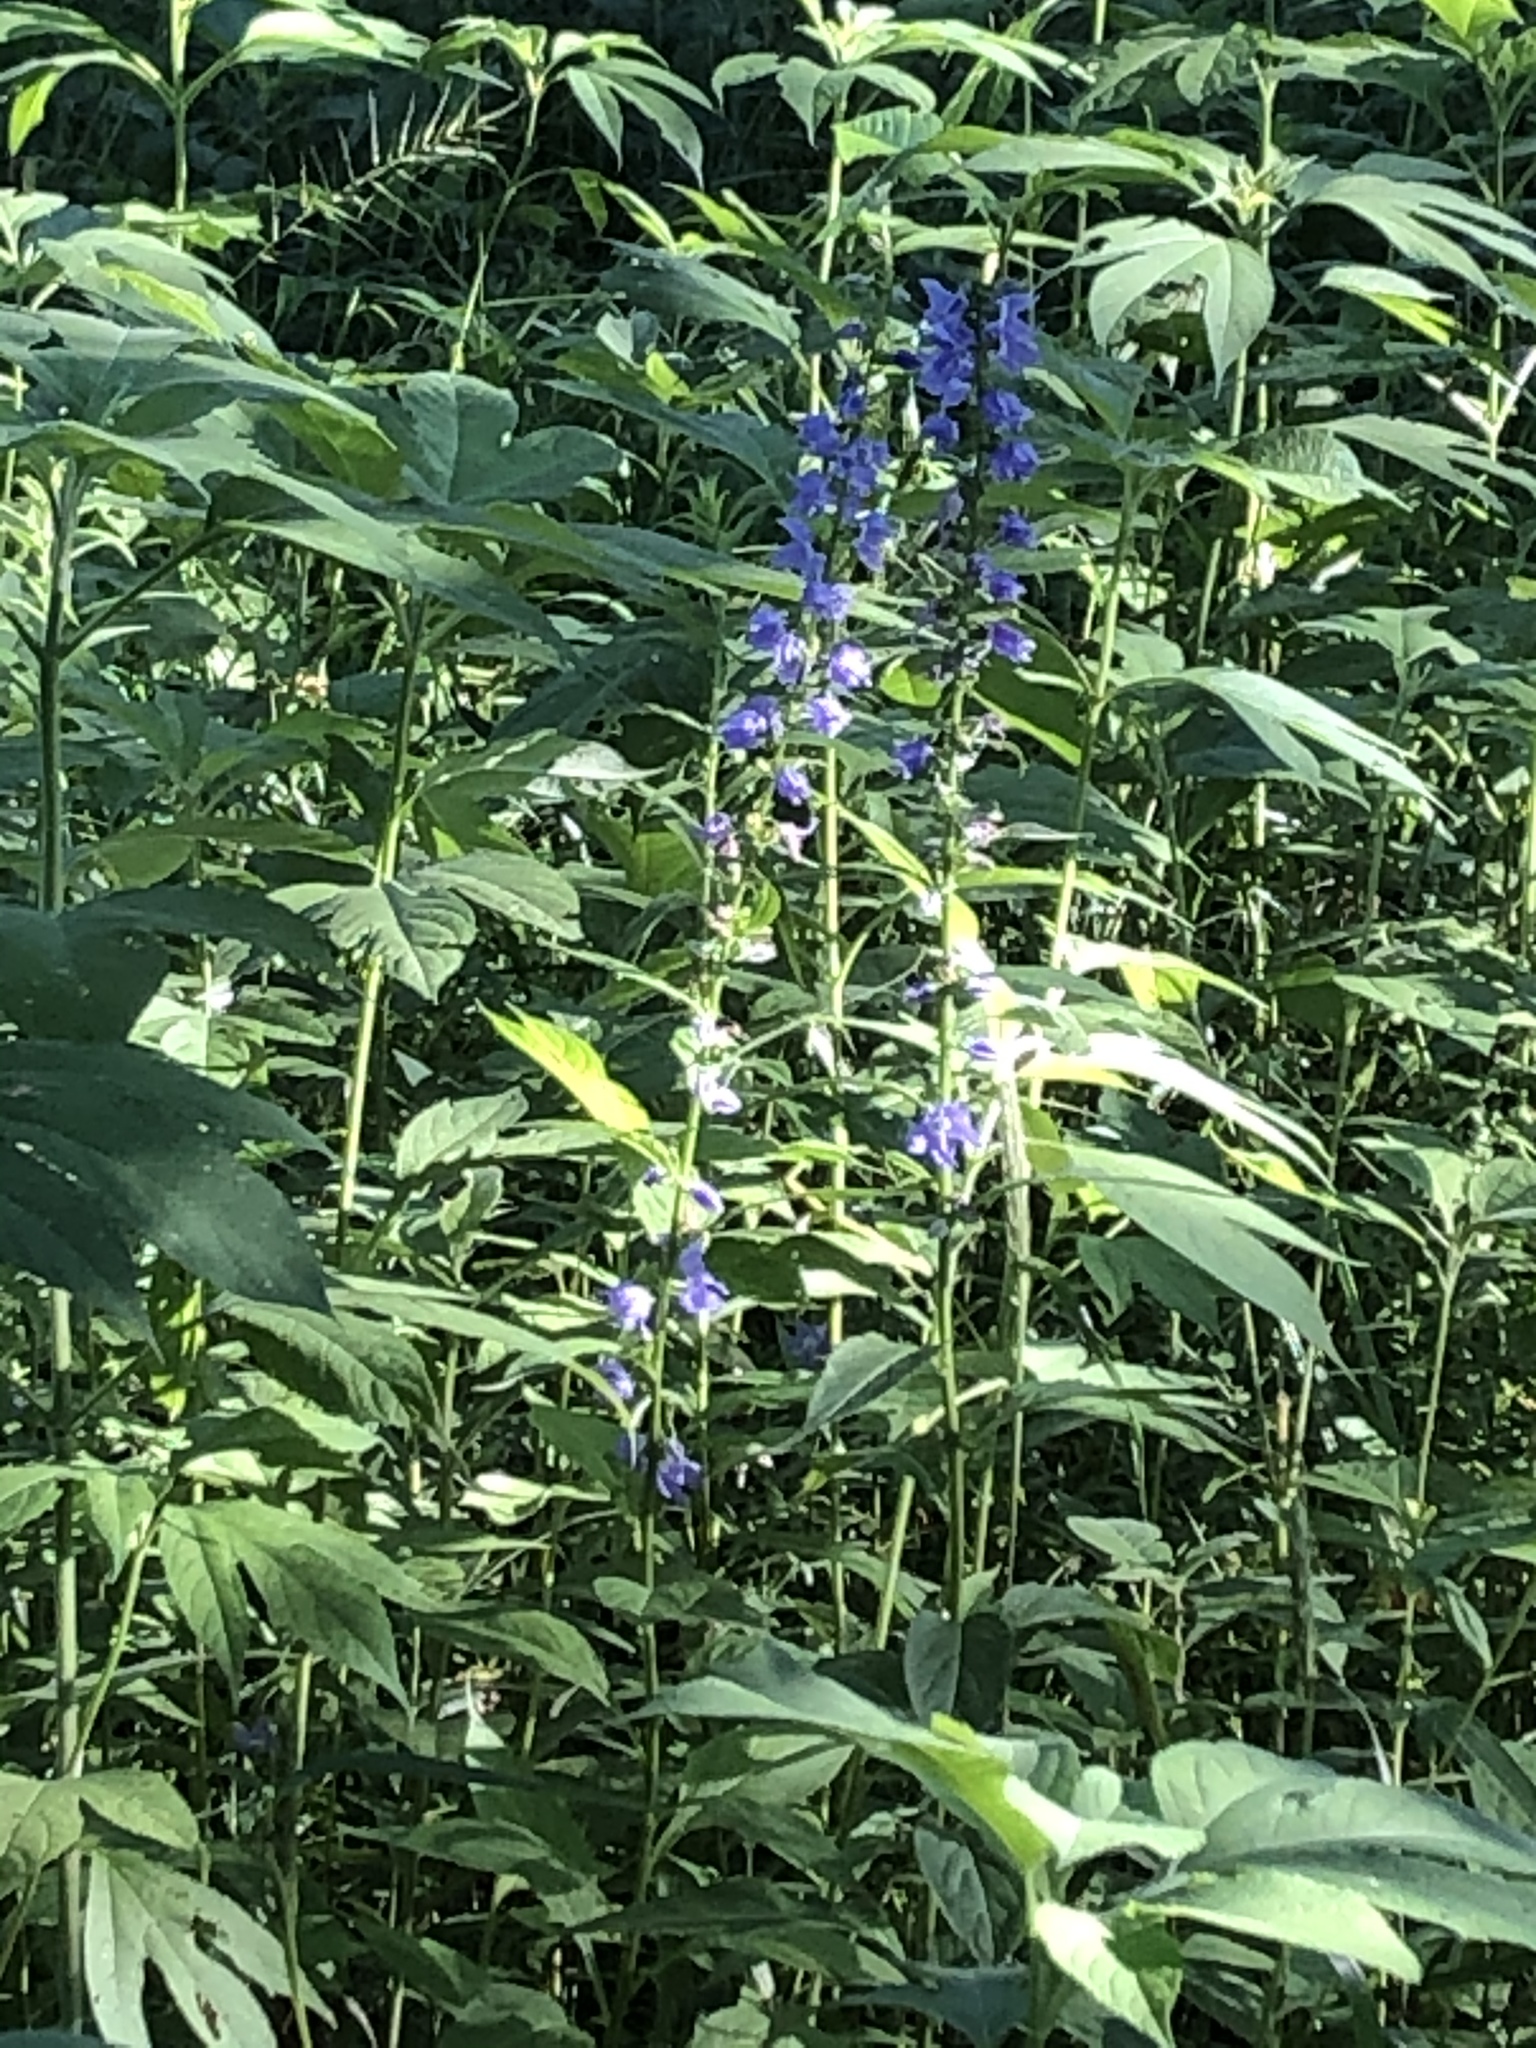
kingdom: Plantae
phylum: Tracheophyta
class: Magnoliopsida
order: Asterales
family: Campanulaceae
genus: Campanulastrum
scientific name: Campanulastrum americanum
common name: American bellflower
